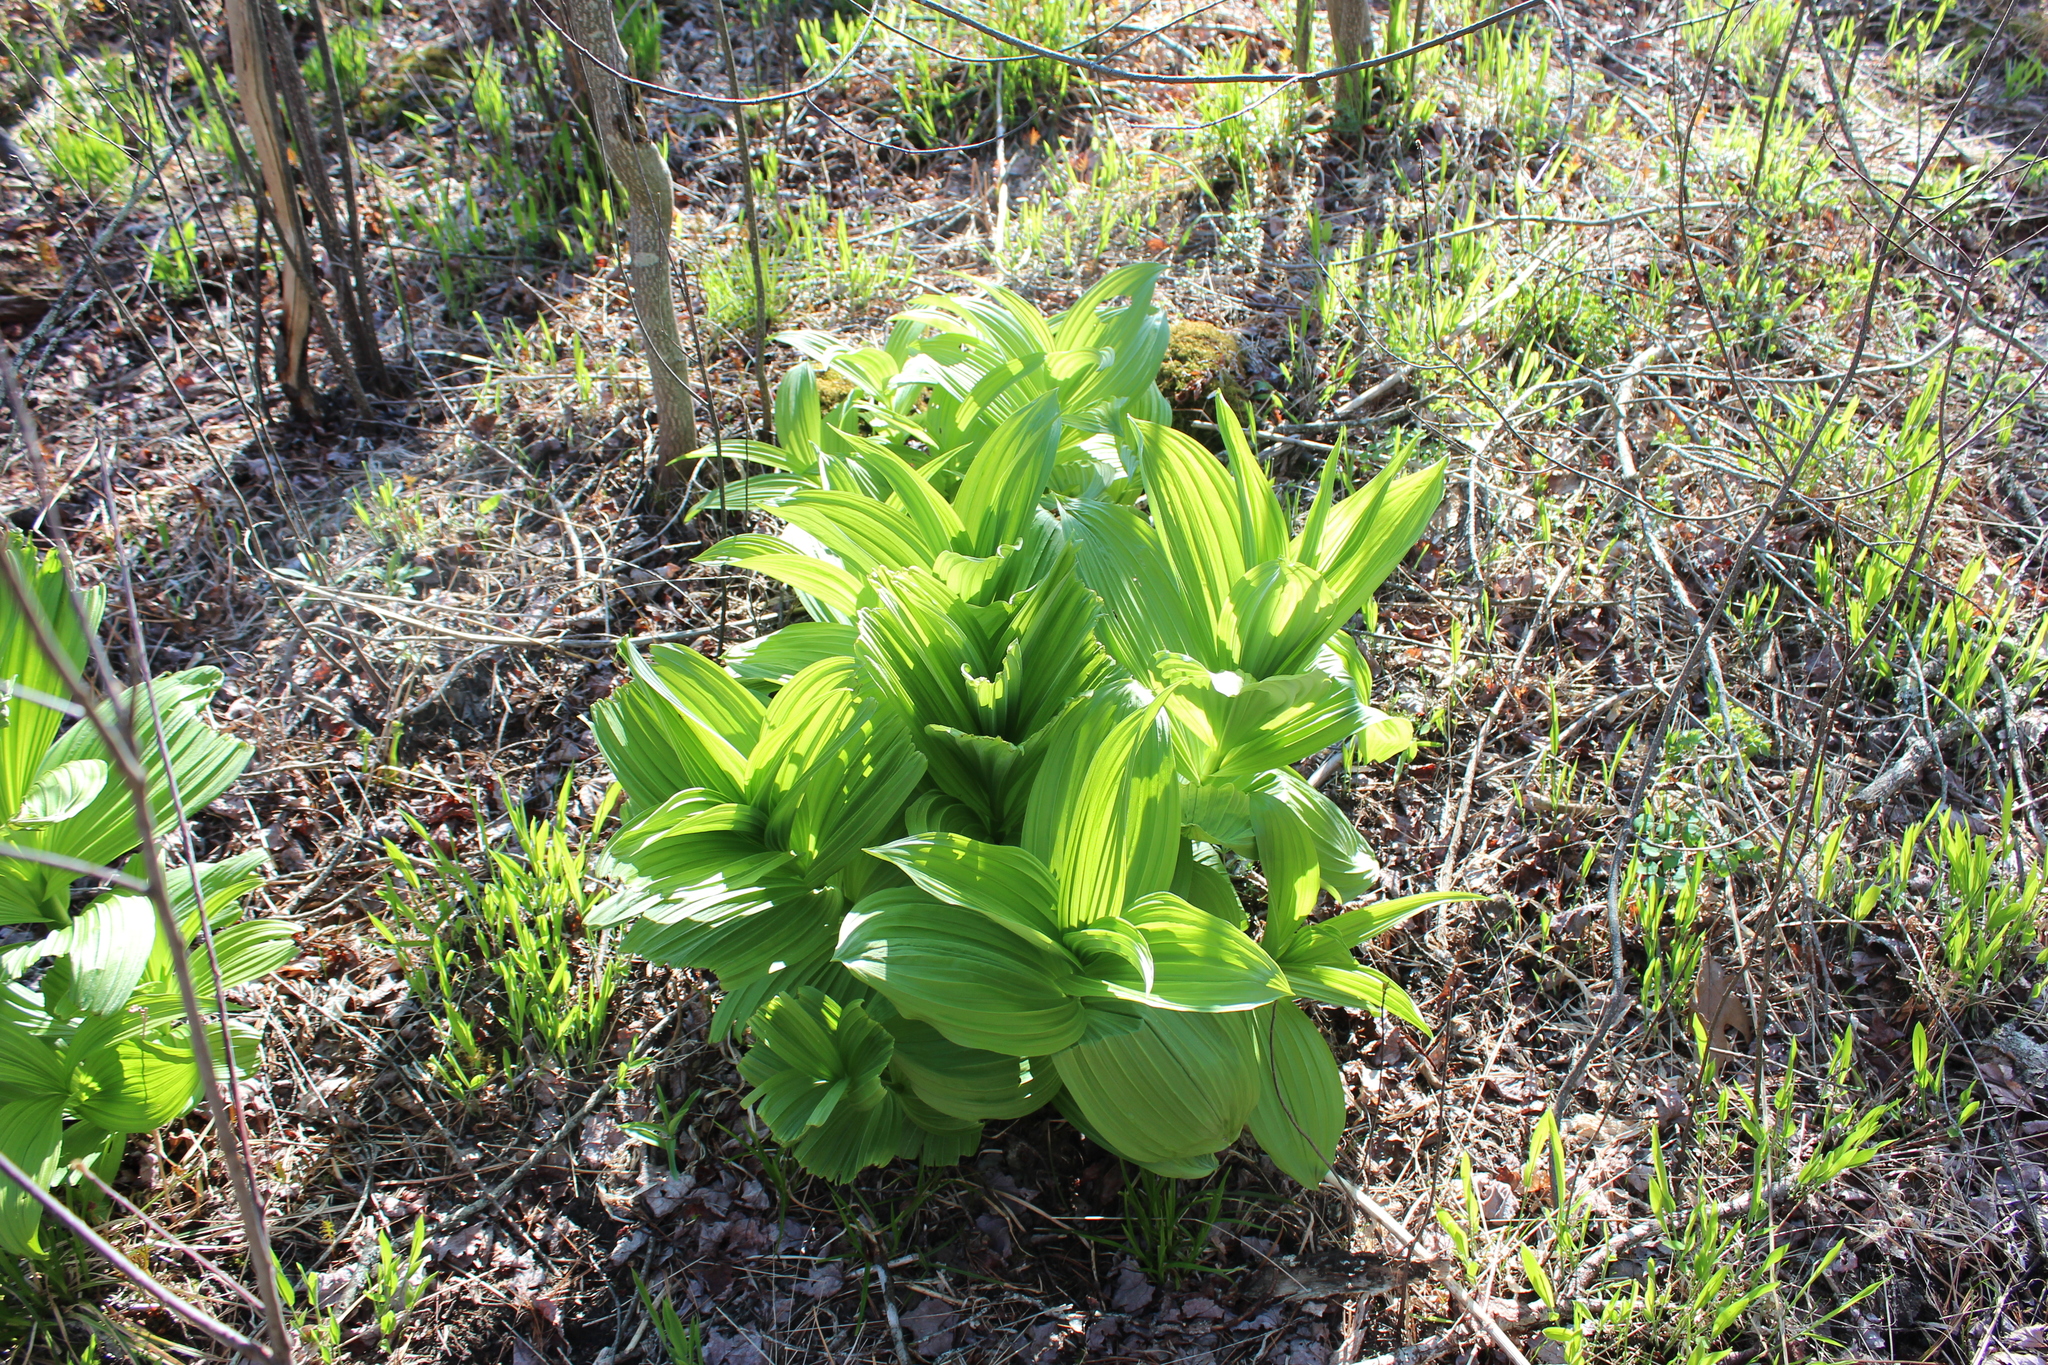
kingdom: Plantae
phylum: Tracheophyta
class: Liliopsida
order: Liliales
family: Melanthiaceae
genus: Veratrum
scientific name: Veratrum viride
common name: American false hellebore
